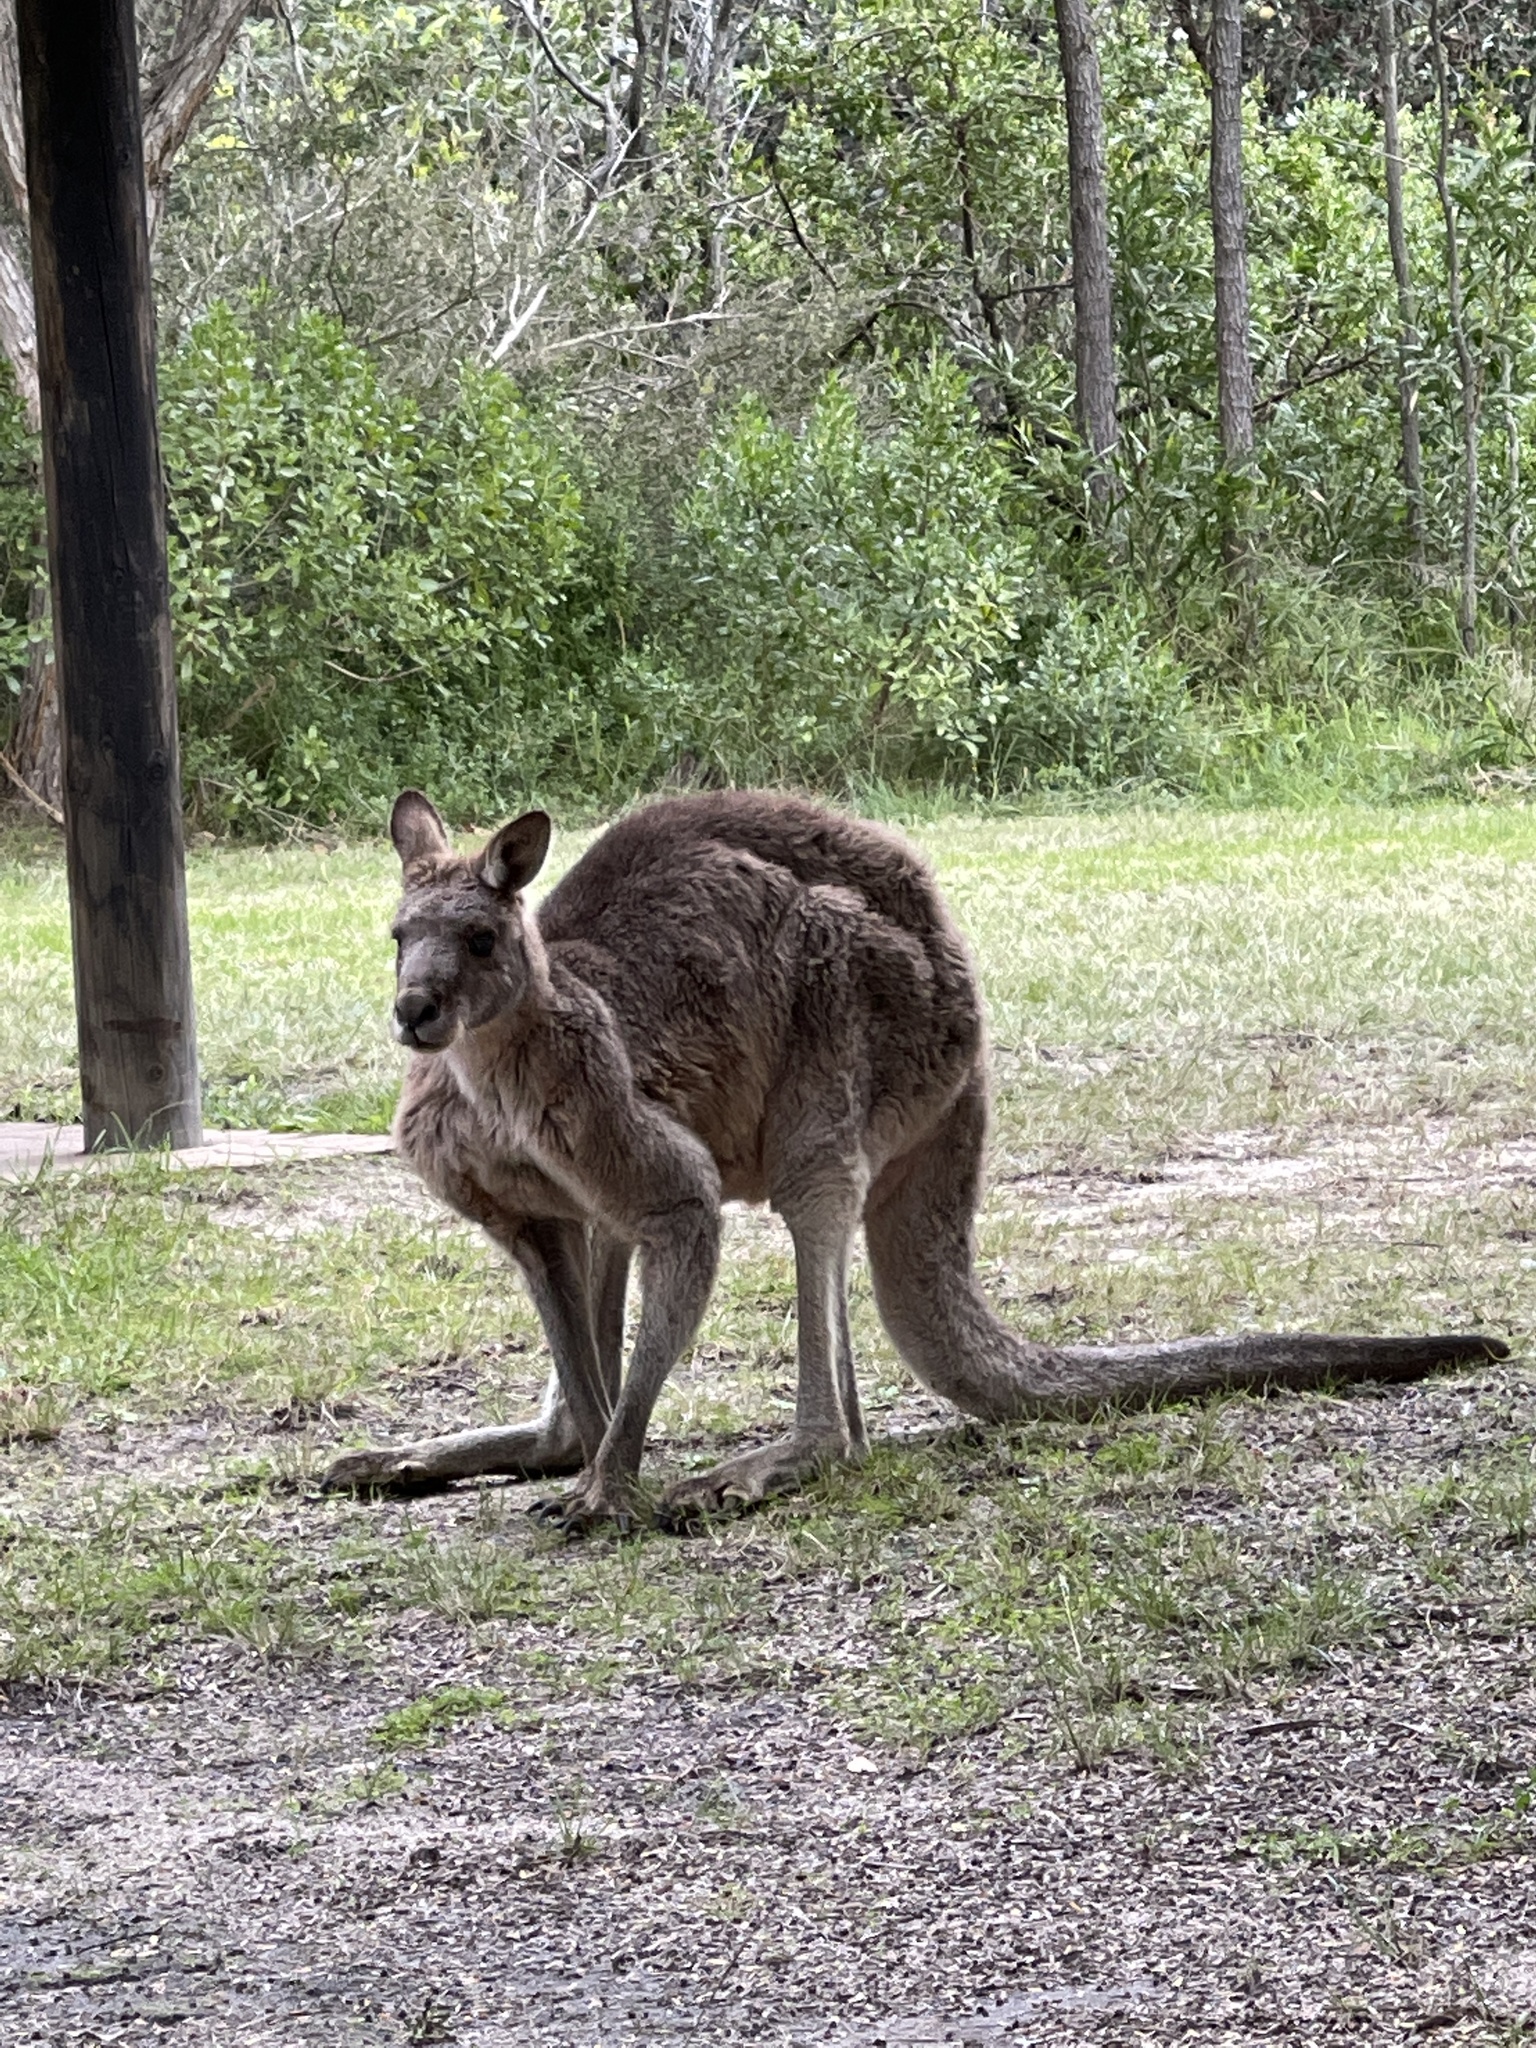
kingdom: Animalia
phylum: Chordata
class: Mammalia
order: Diprotodontia
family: Macropodidae
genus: Macropus
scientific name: Macropus giganteus
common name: Eastern grey kangaroo
